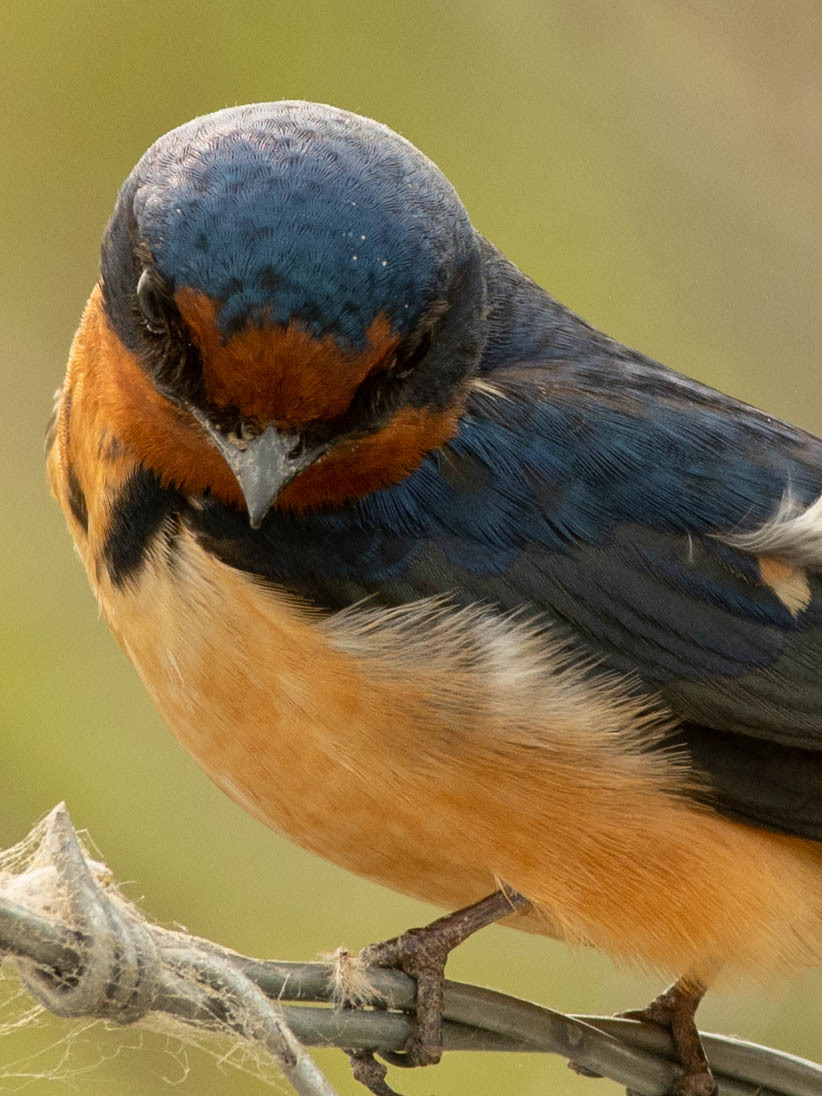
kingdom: Animalia
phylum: Chordata
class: Aves
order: Passeriformes
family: Hirundinidae
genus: Hirundo
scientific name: Hirundo rustica
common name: Barn swallow
